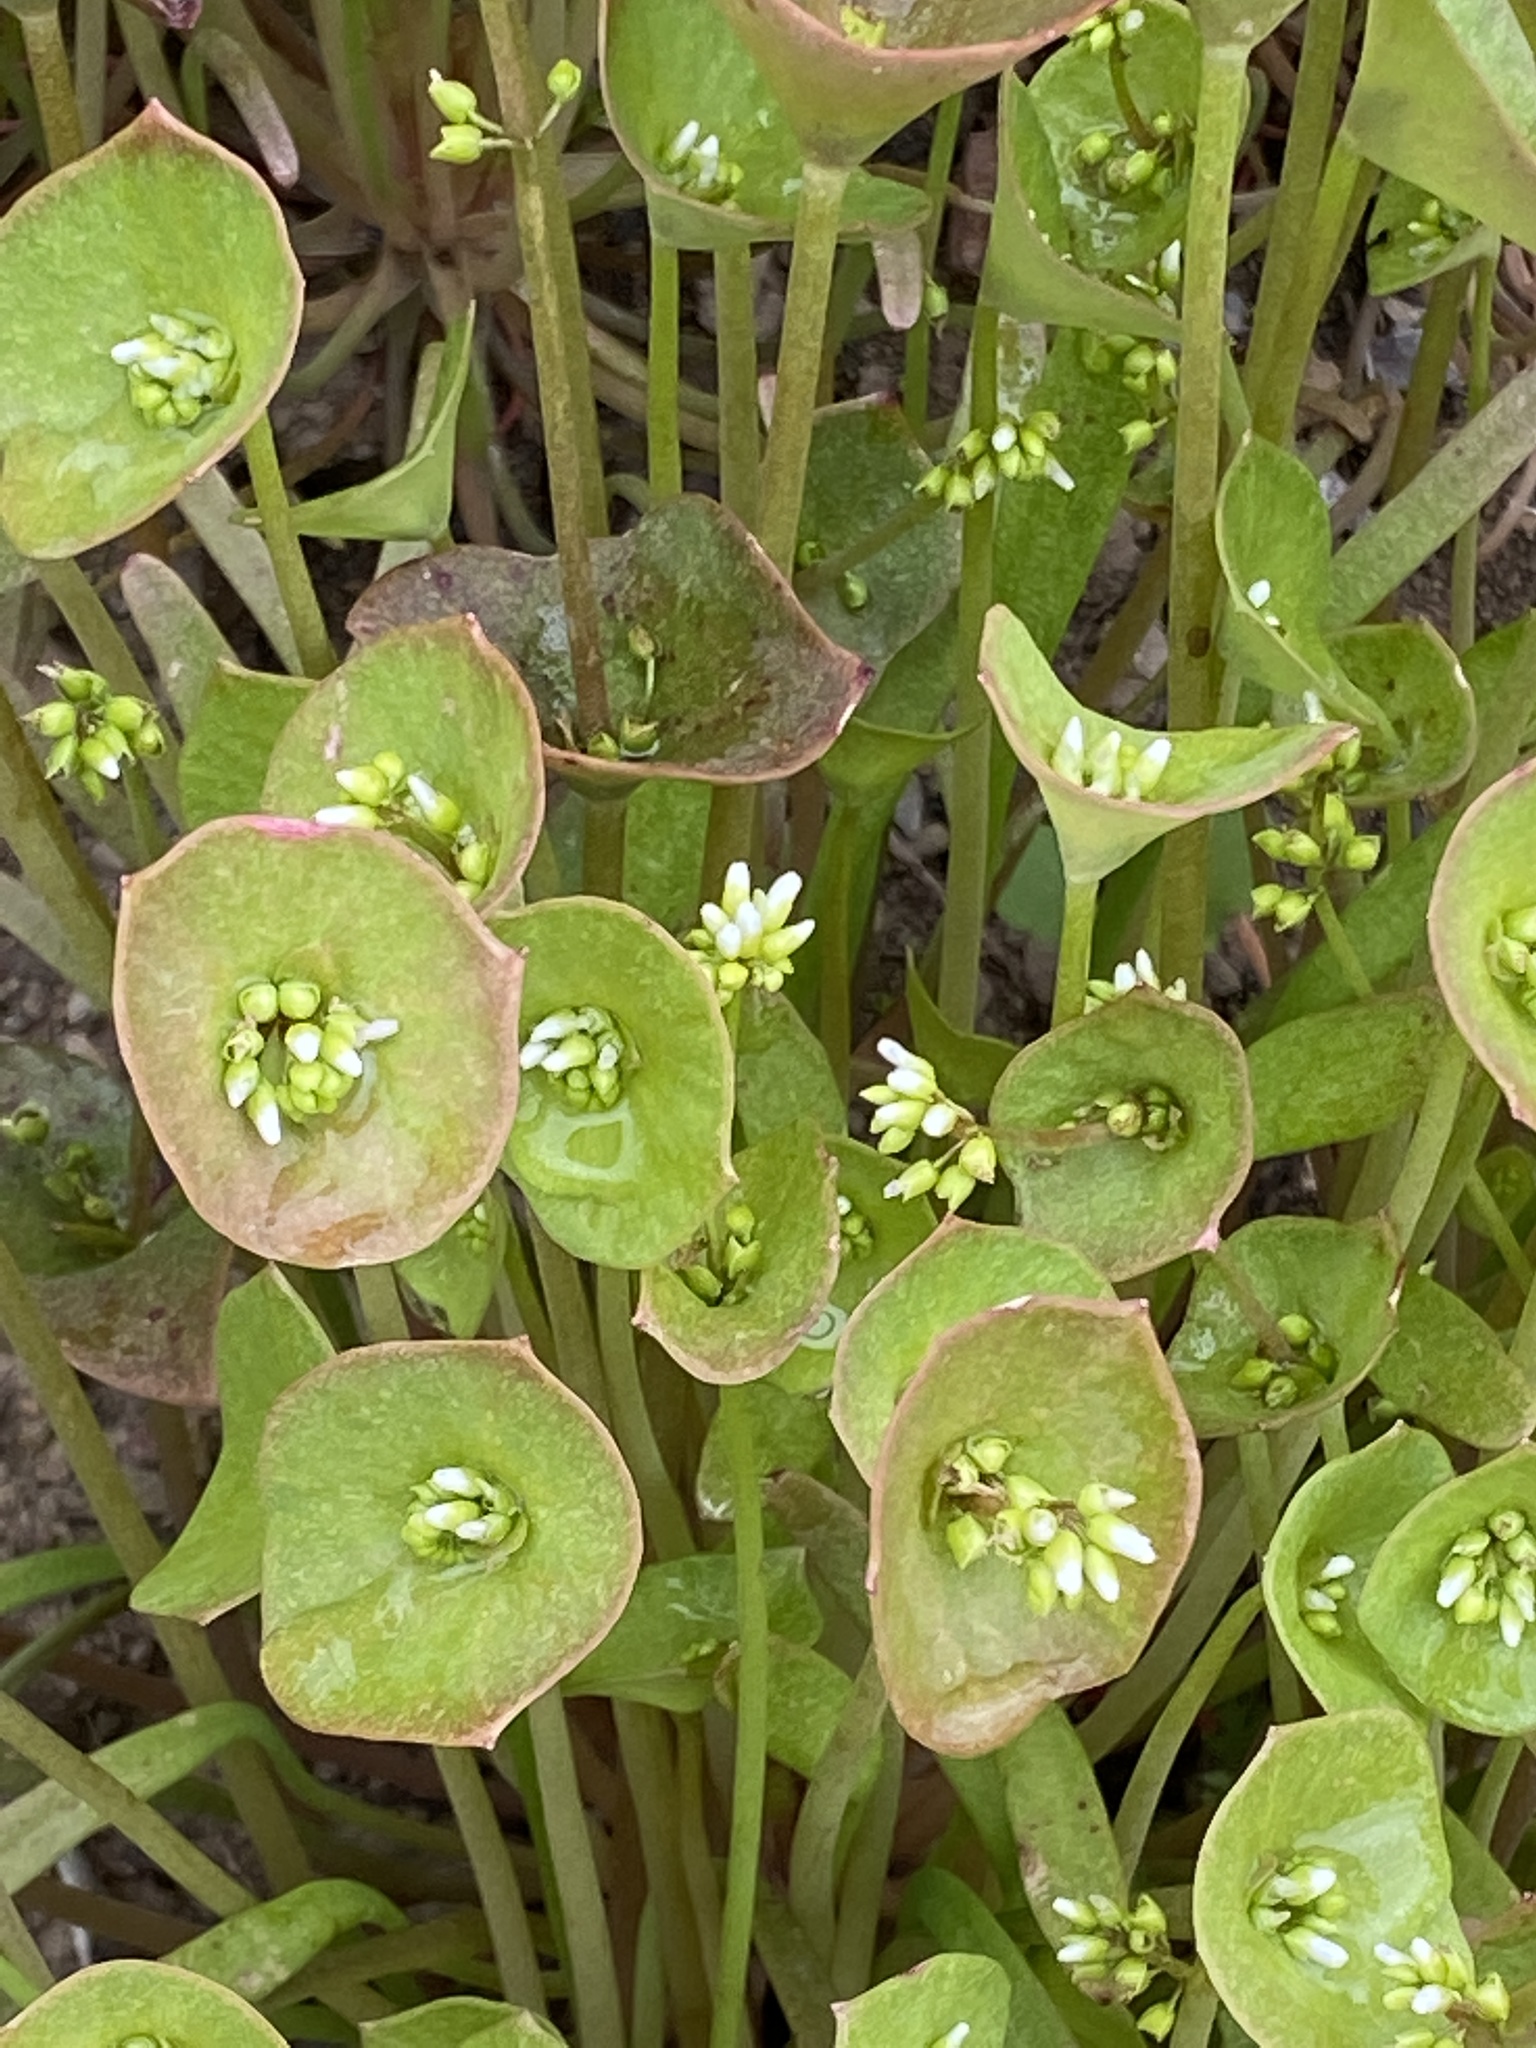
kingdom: Plantae
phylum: Tracheophyta
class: Magnoliopsida
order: Caryophyllales
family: Montiaceae
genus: Claytonia
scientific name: Claytonia perfoliata
